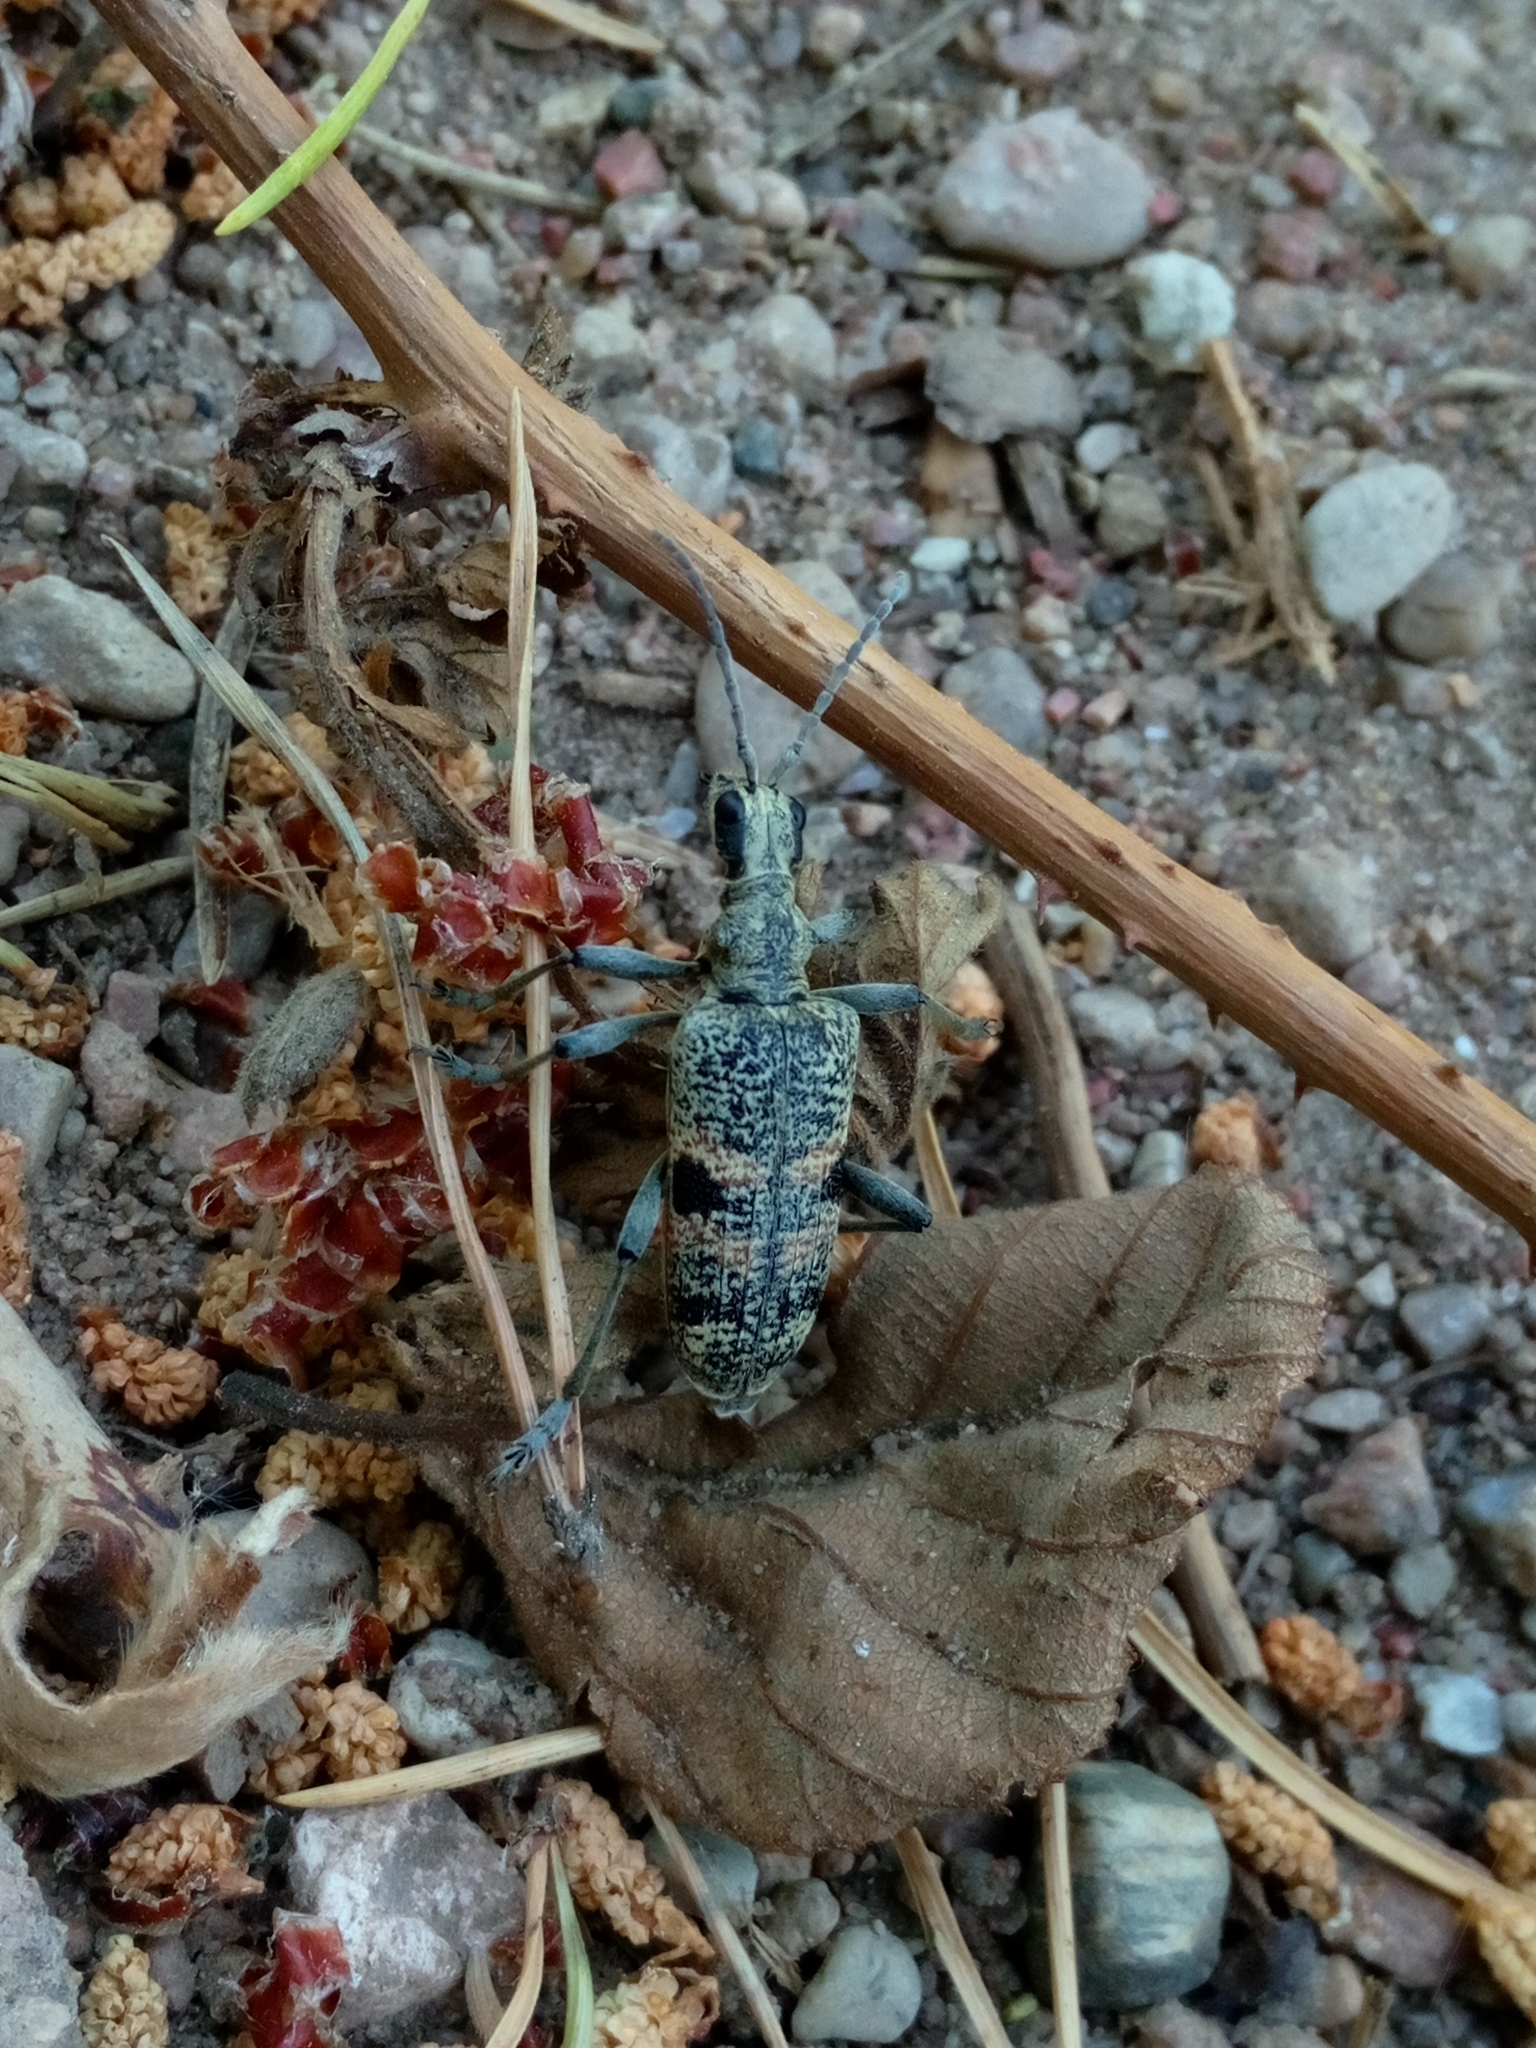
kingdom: Animalia
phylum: Arthropoda
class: Insecta
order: Coleoptera
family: Cerambycidae
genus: Rhagium
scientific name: Rhagium mordax
